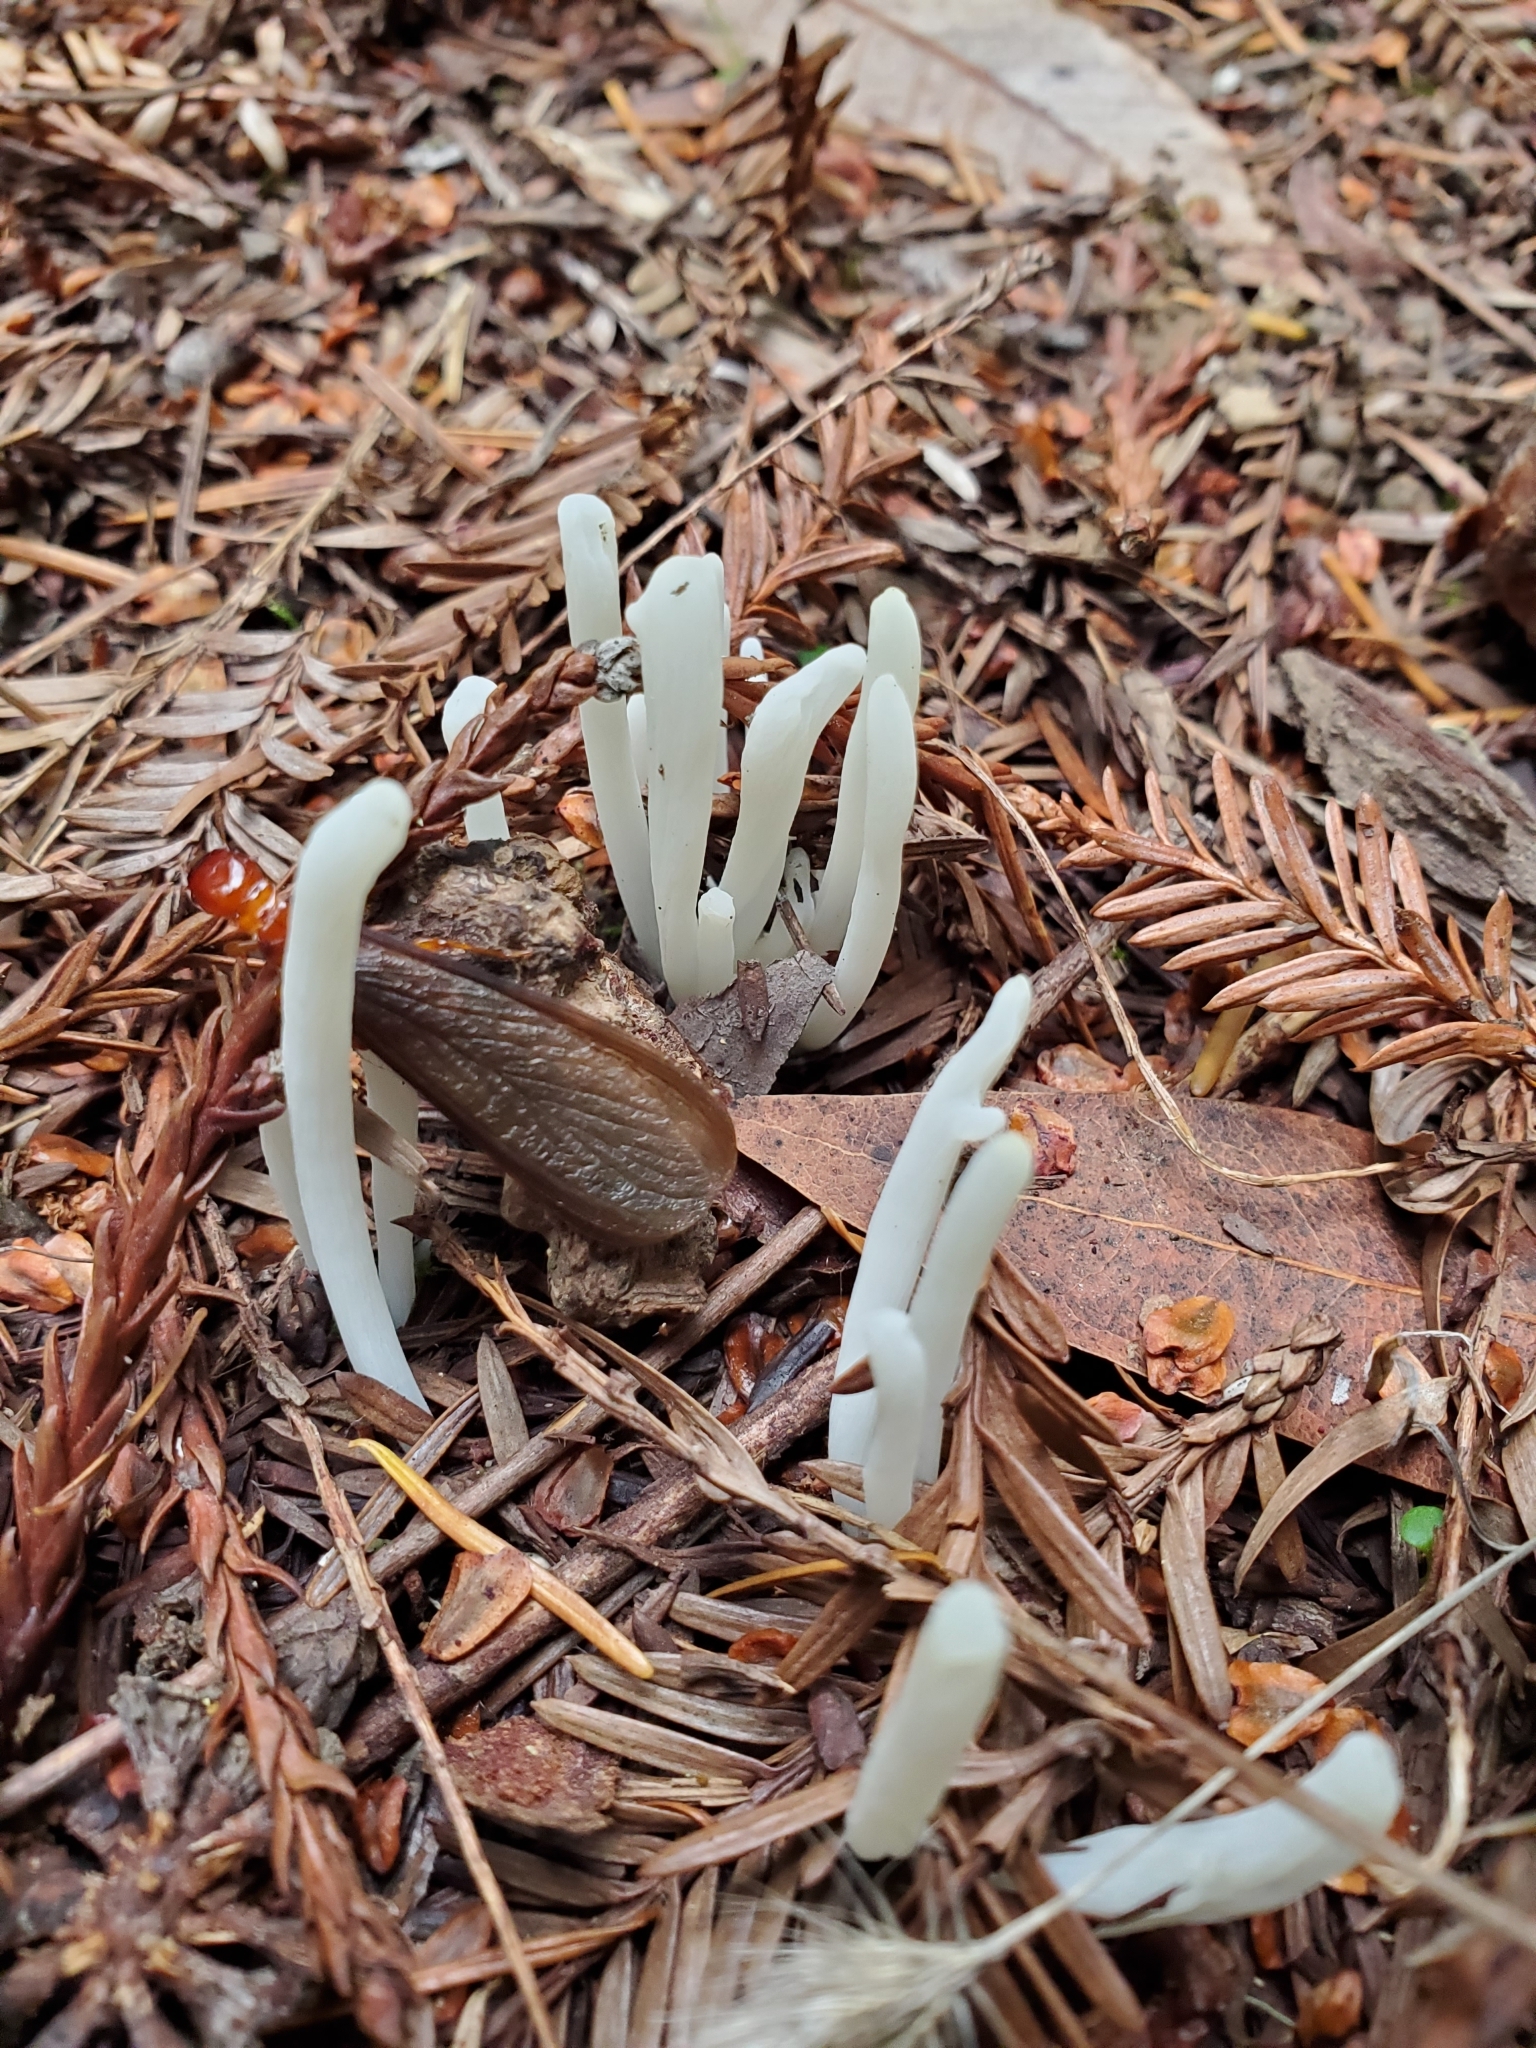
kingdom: Fungi
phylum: Basidiomycota
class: Agaricomycetes
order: Agaricales
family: Clavariaceae
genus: Clavaria
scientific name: Clavaria fragilis
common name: White spindles
